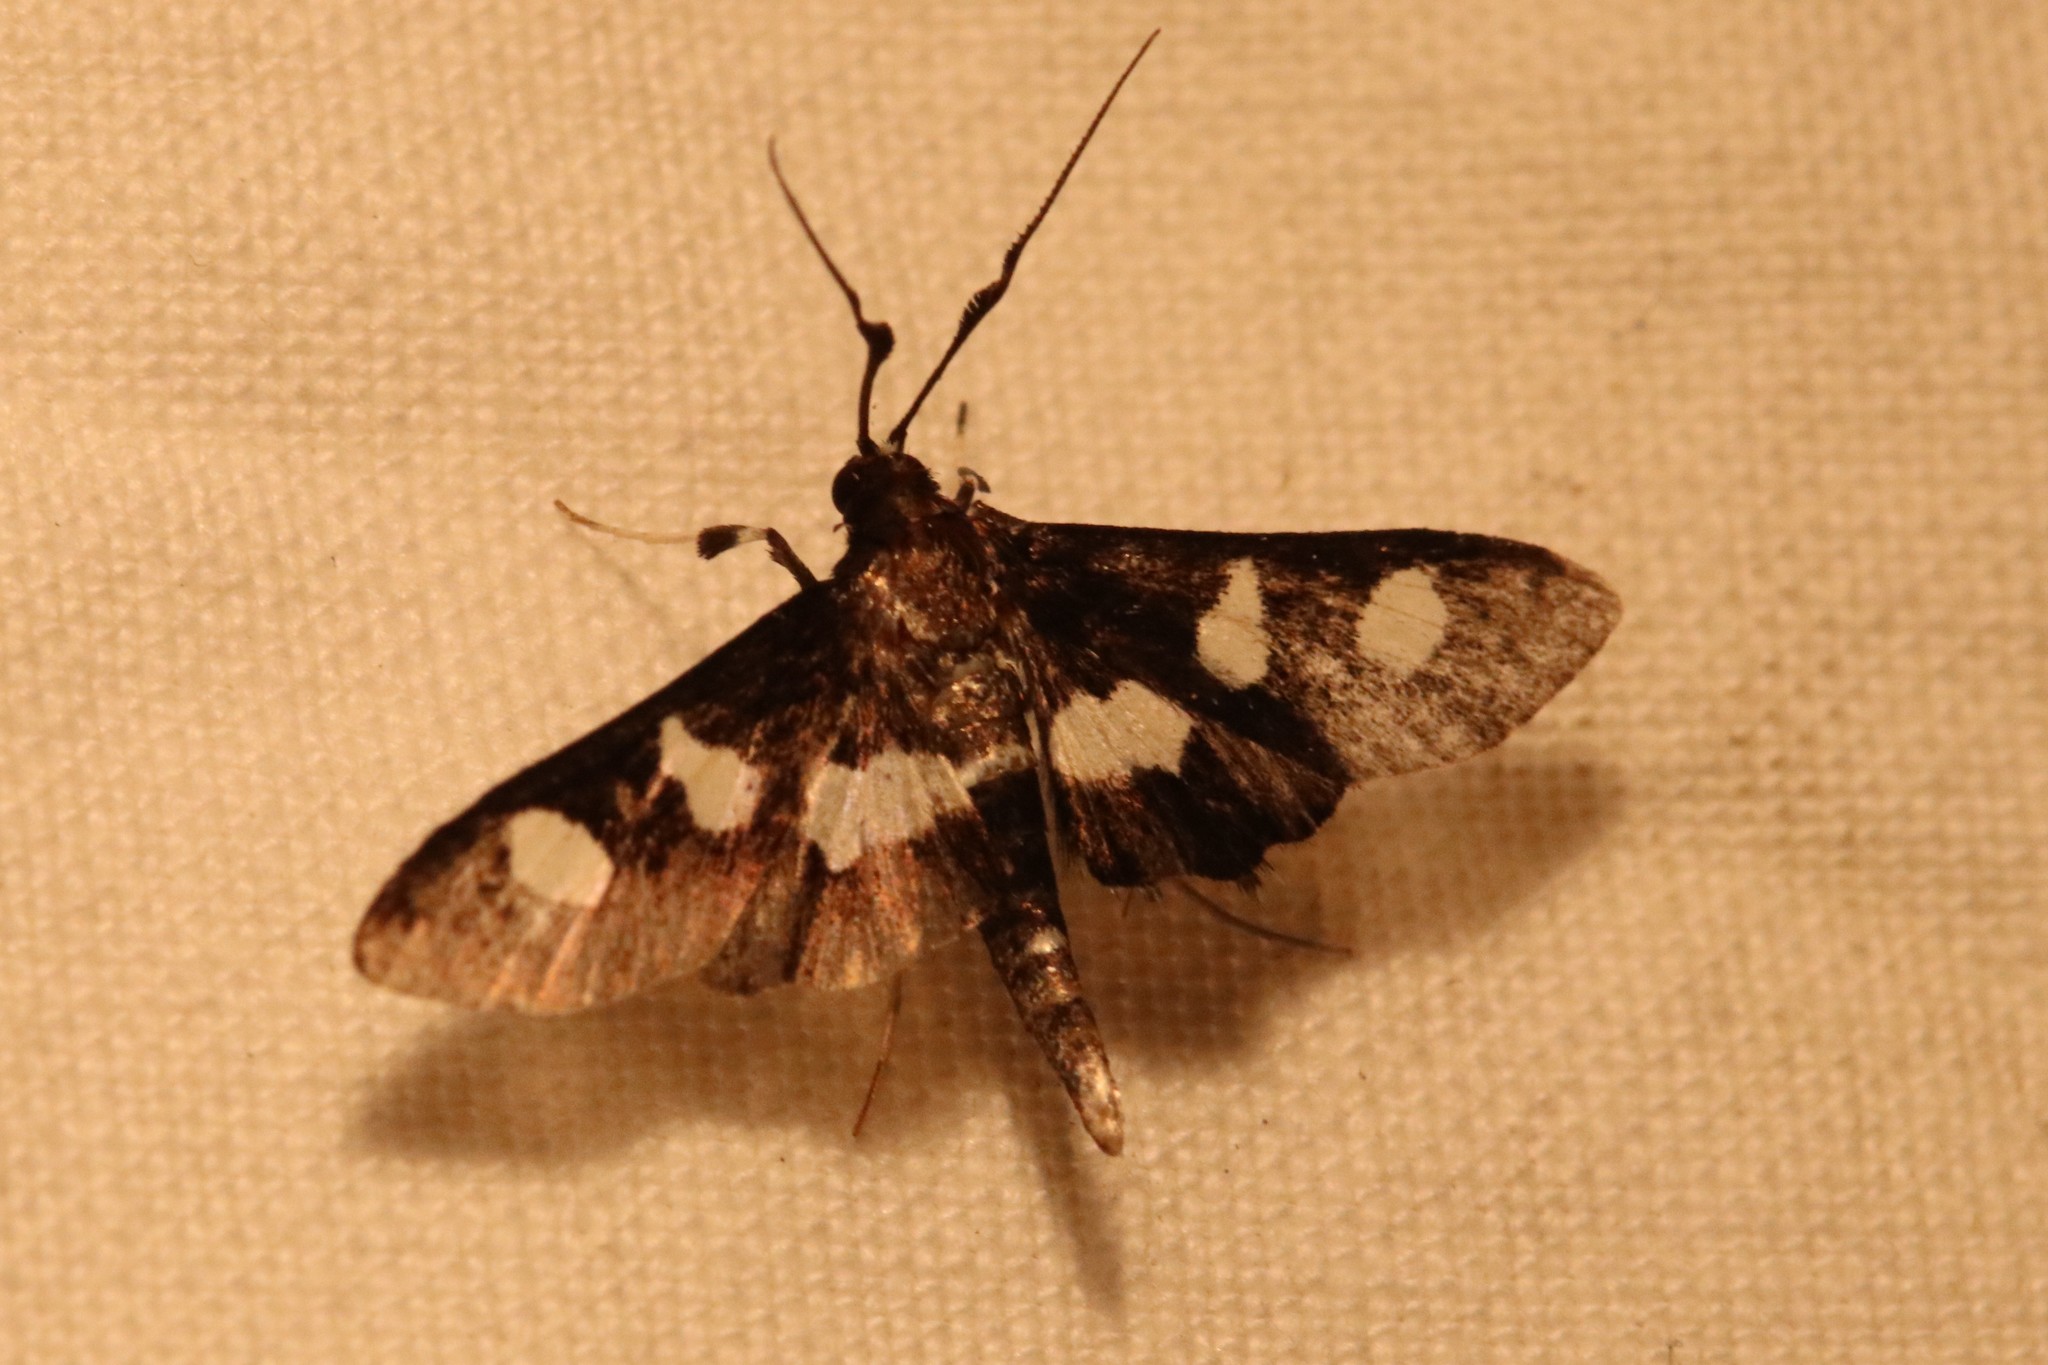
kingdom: Animalia
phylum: Arthropoda
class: Insecta
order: Lepidoptera
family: Crambidae
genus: Desmia
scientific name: Desmia
